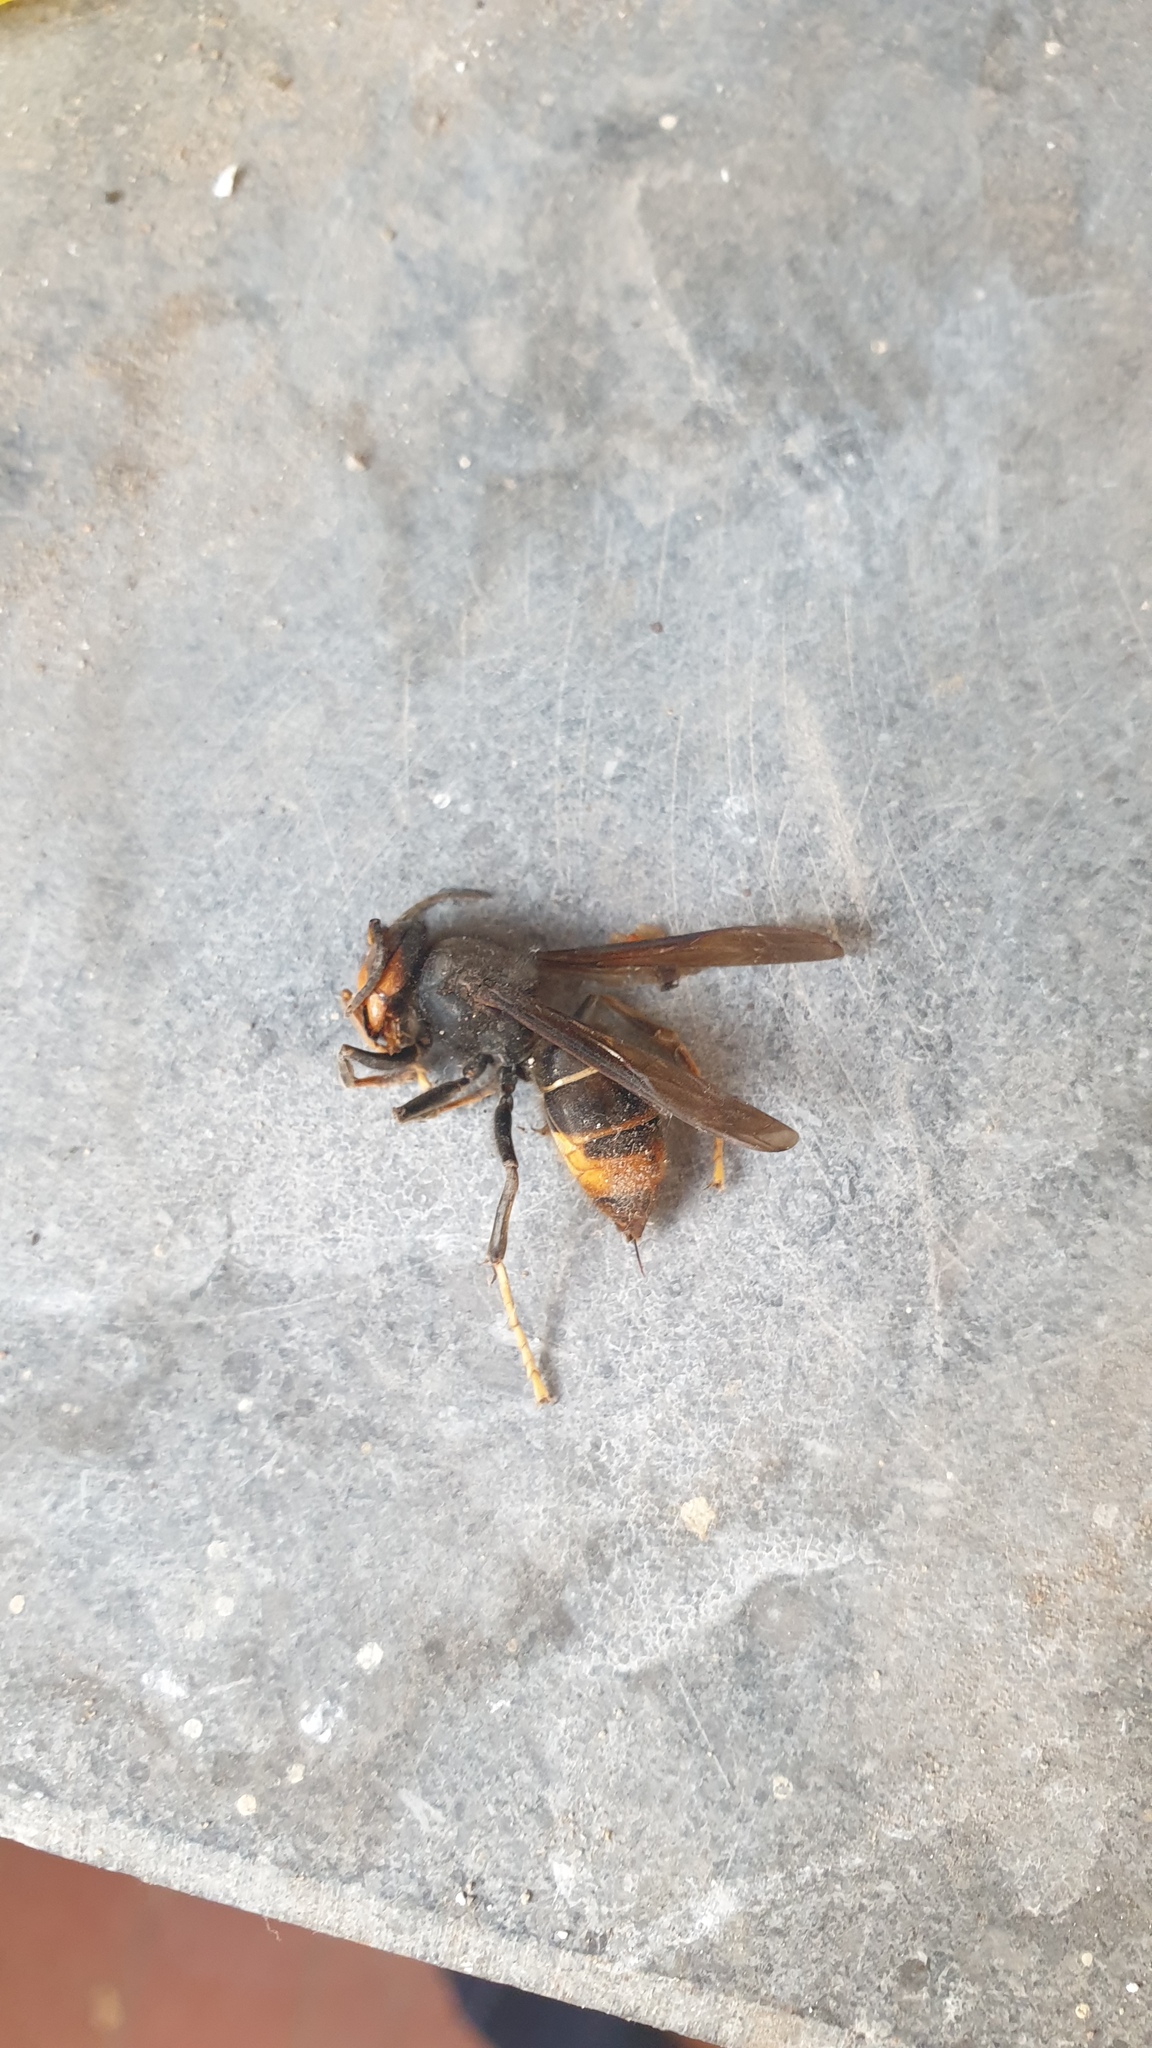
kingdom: Animalia
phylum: Arthropoda
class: Insecta
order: Hymenoptera
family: Vespidae
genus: Vespa
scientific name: Vespa velutina
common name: Asian hornet
